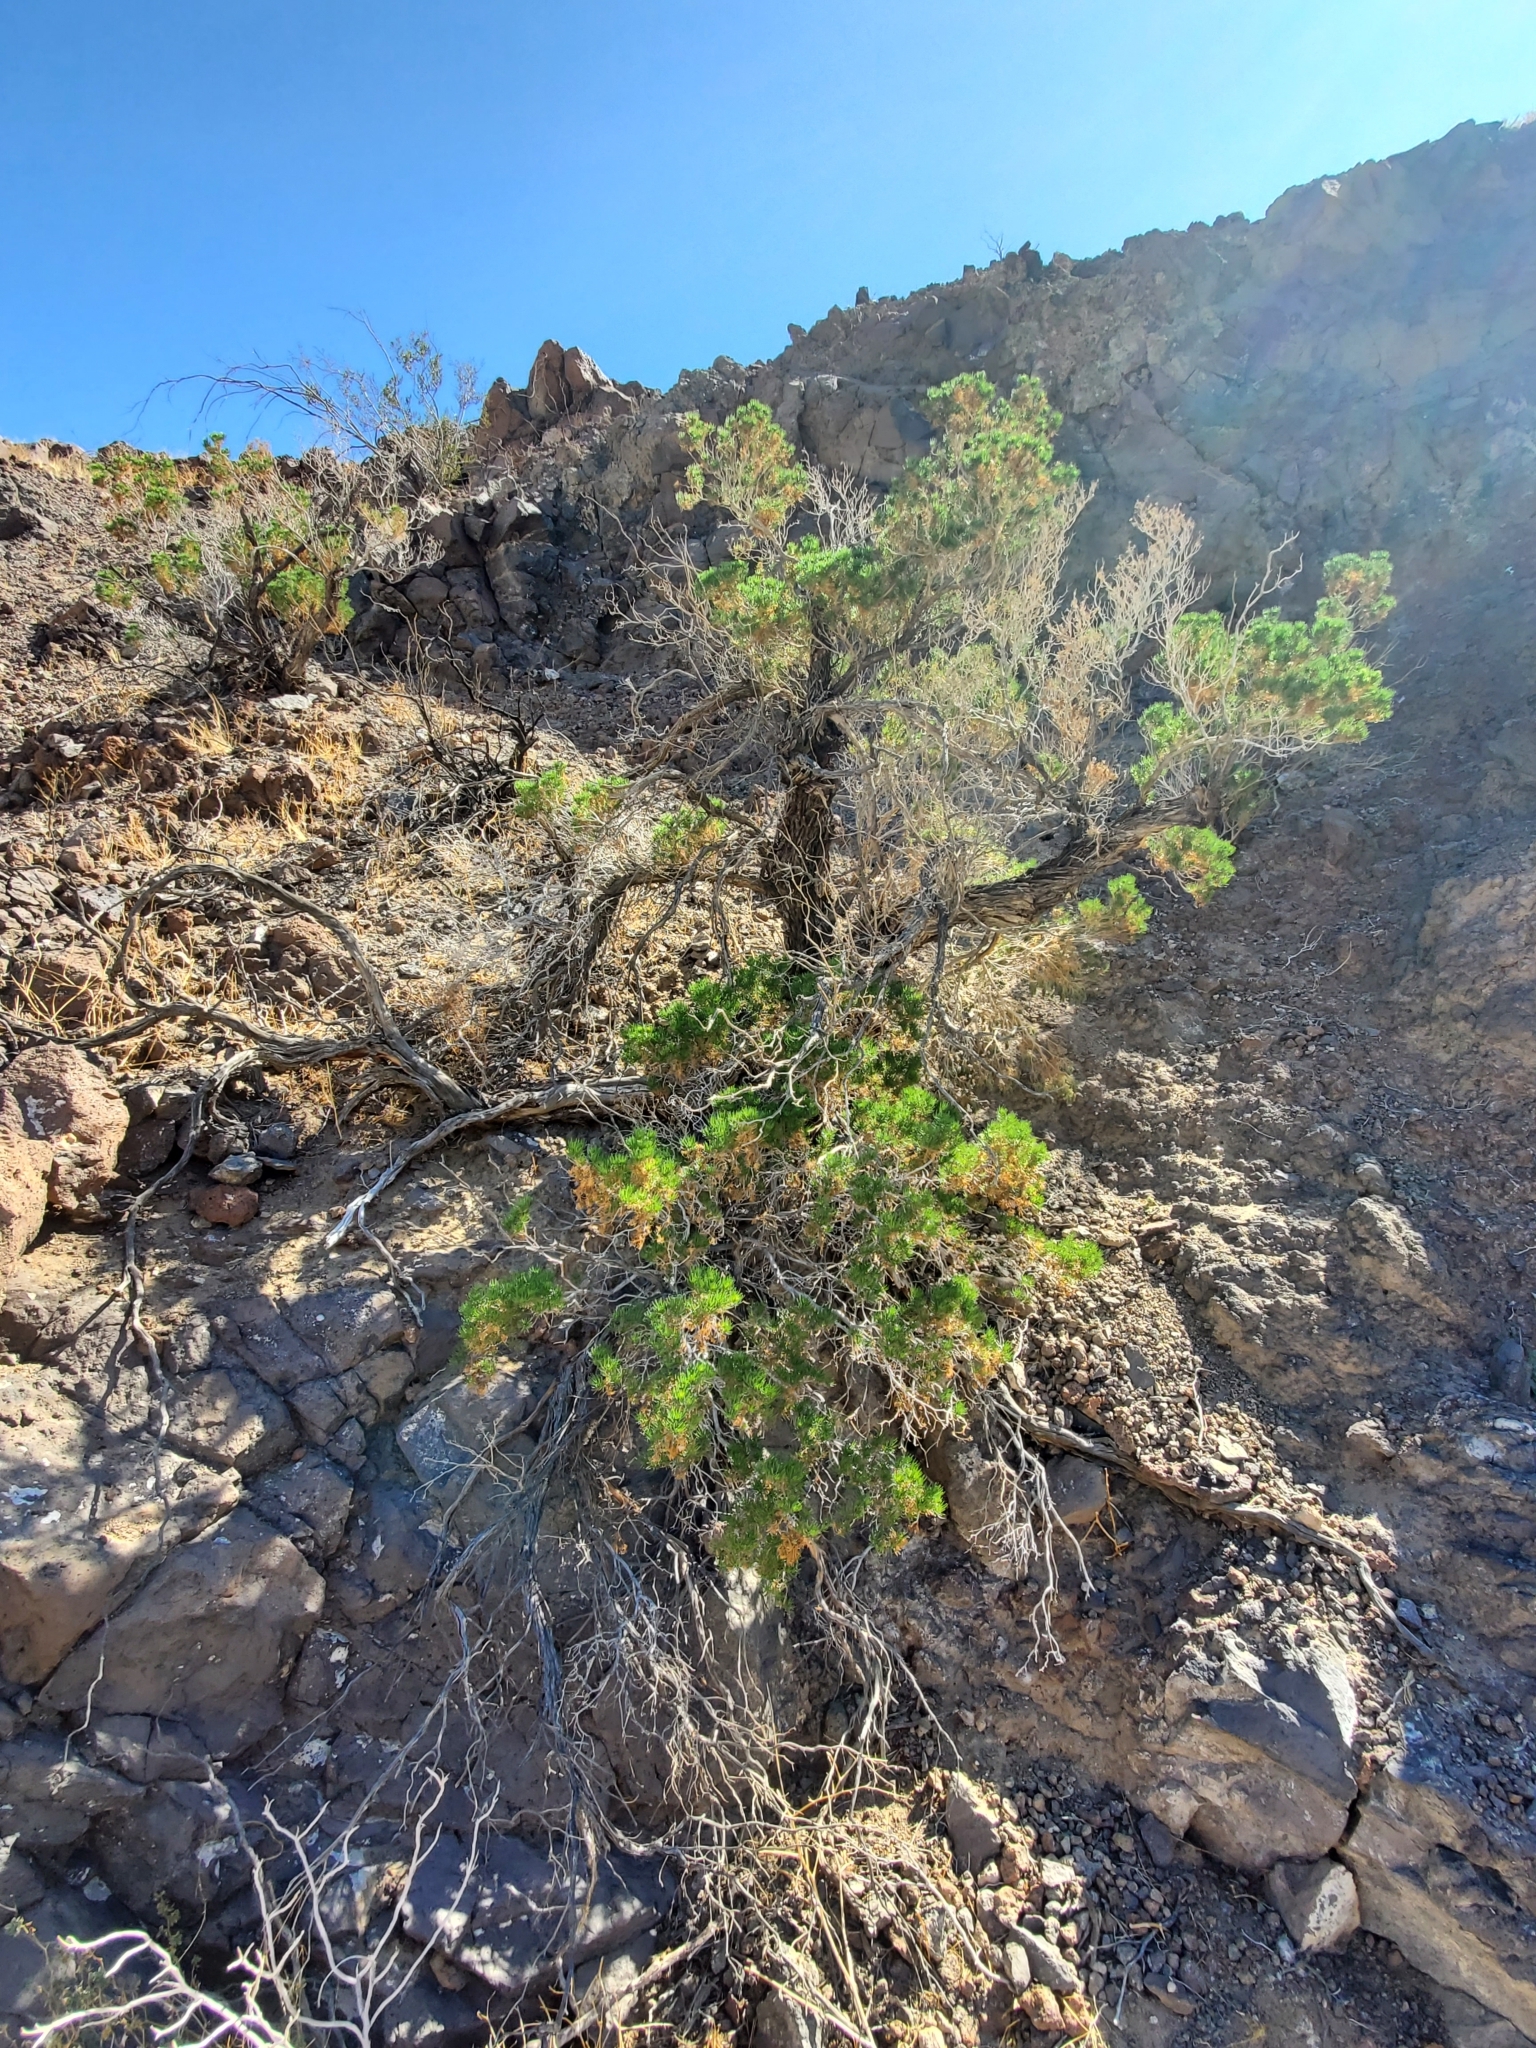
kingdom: Plantae
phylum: Tracheophyta
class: Magnoliopsida
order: Asterales
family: Asteraceae
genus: Peucephyllum
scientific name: Peucephyllum schottii
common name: Pygmy-cedar
